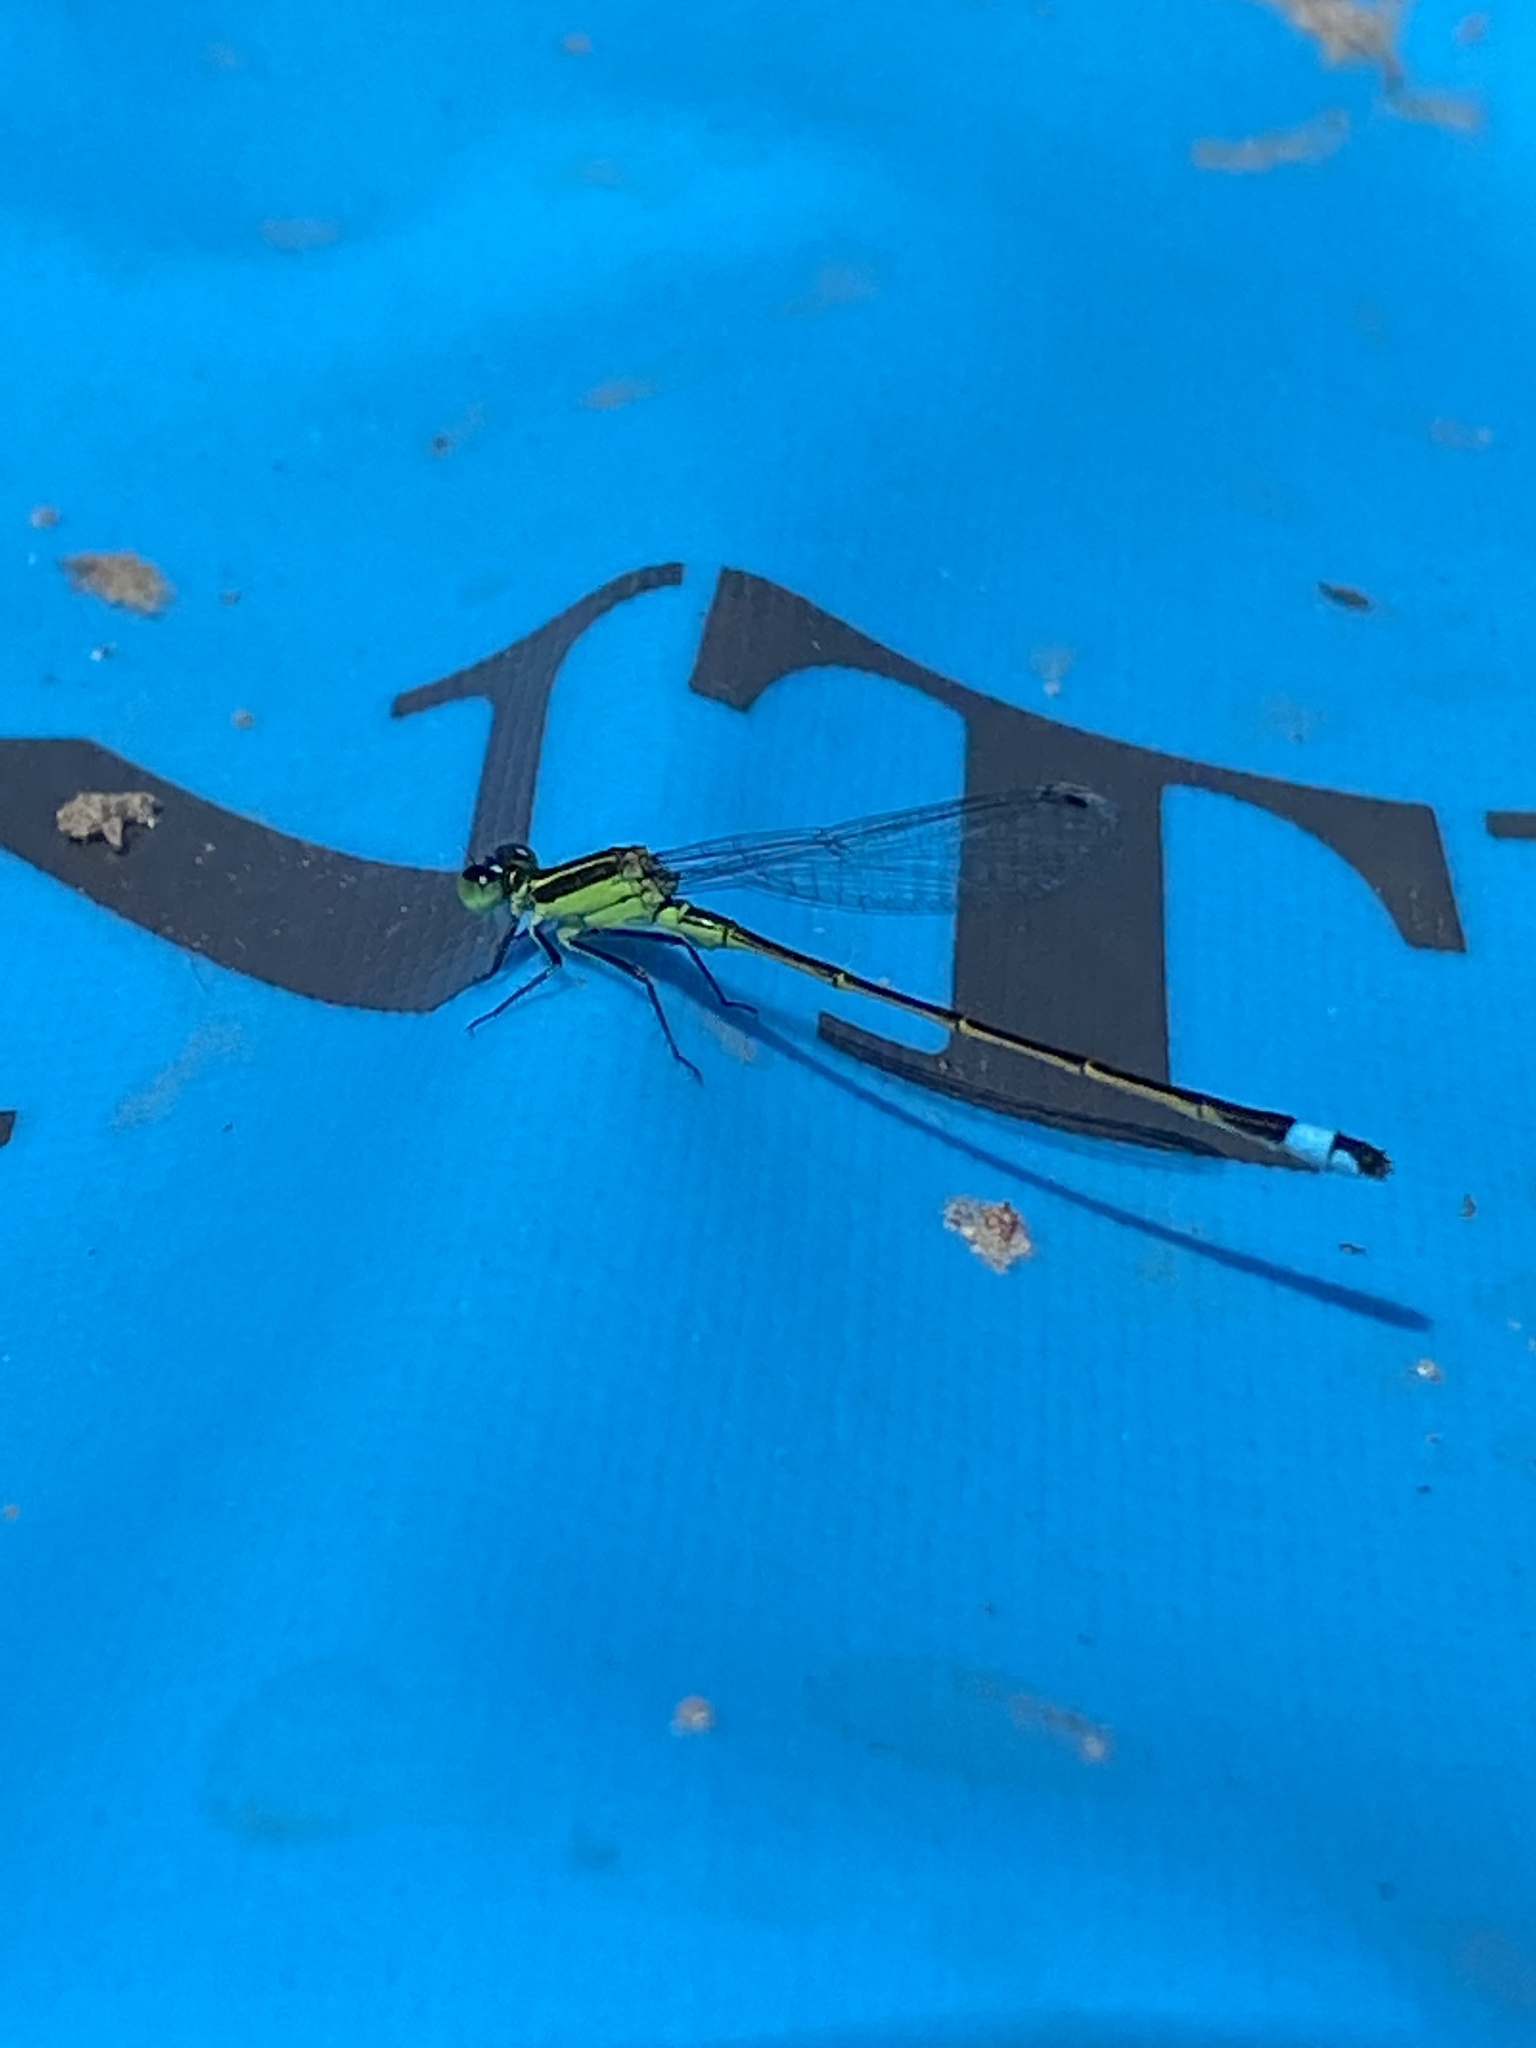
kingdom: Animalia
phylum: Arthropoda
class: Insecta
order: Odonata
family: Coenagrionidae
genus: Ischnura
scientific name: Ischnura ramburii
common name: Rambur's forktail
